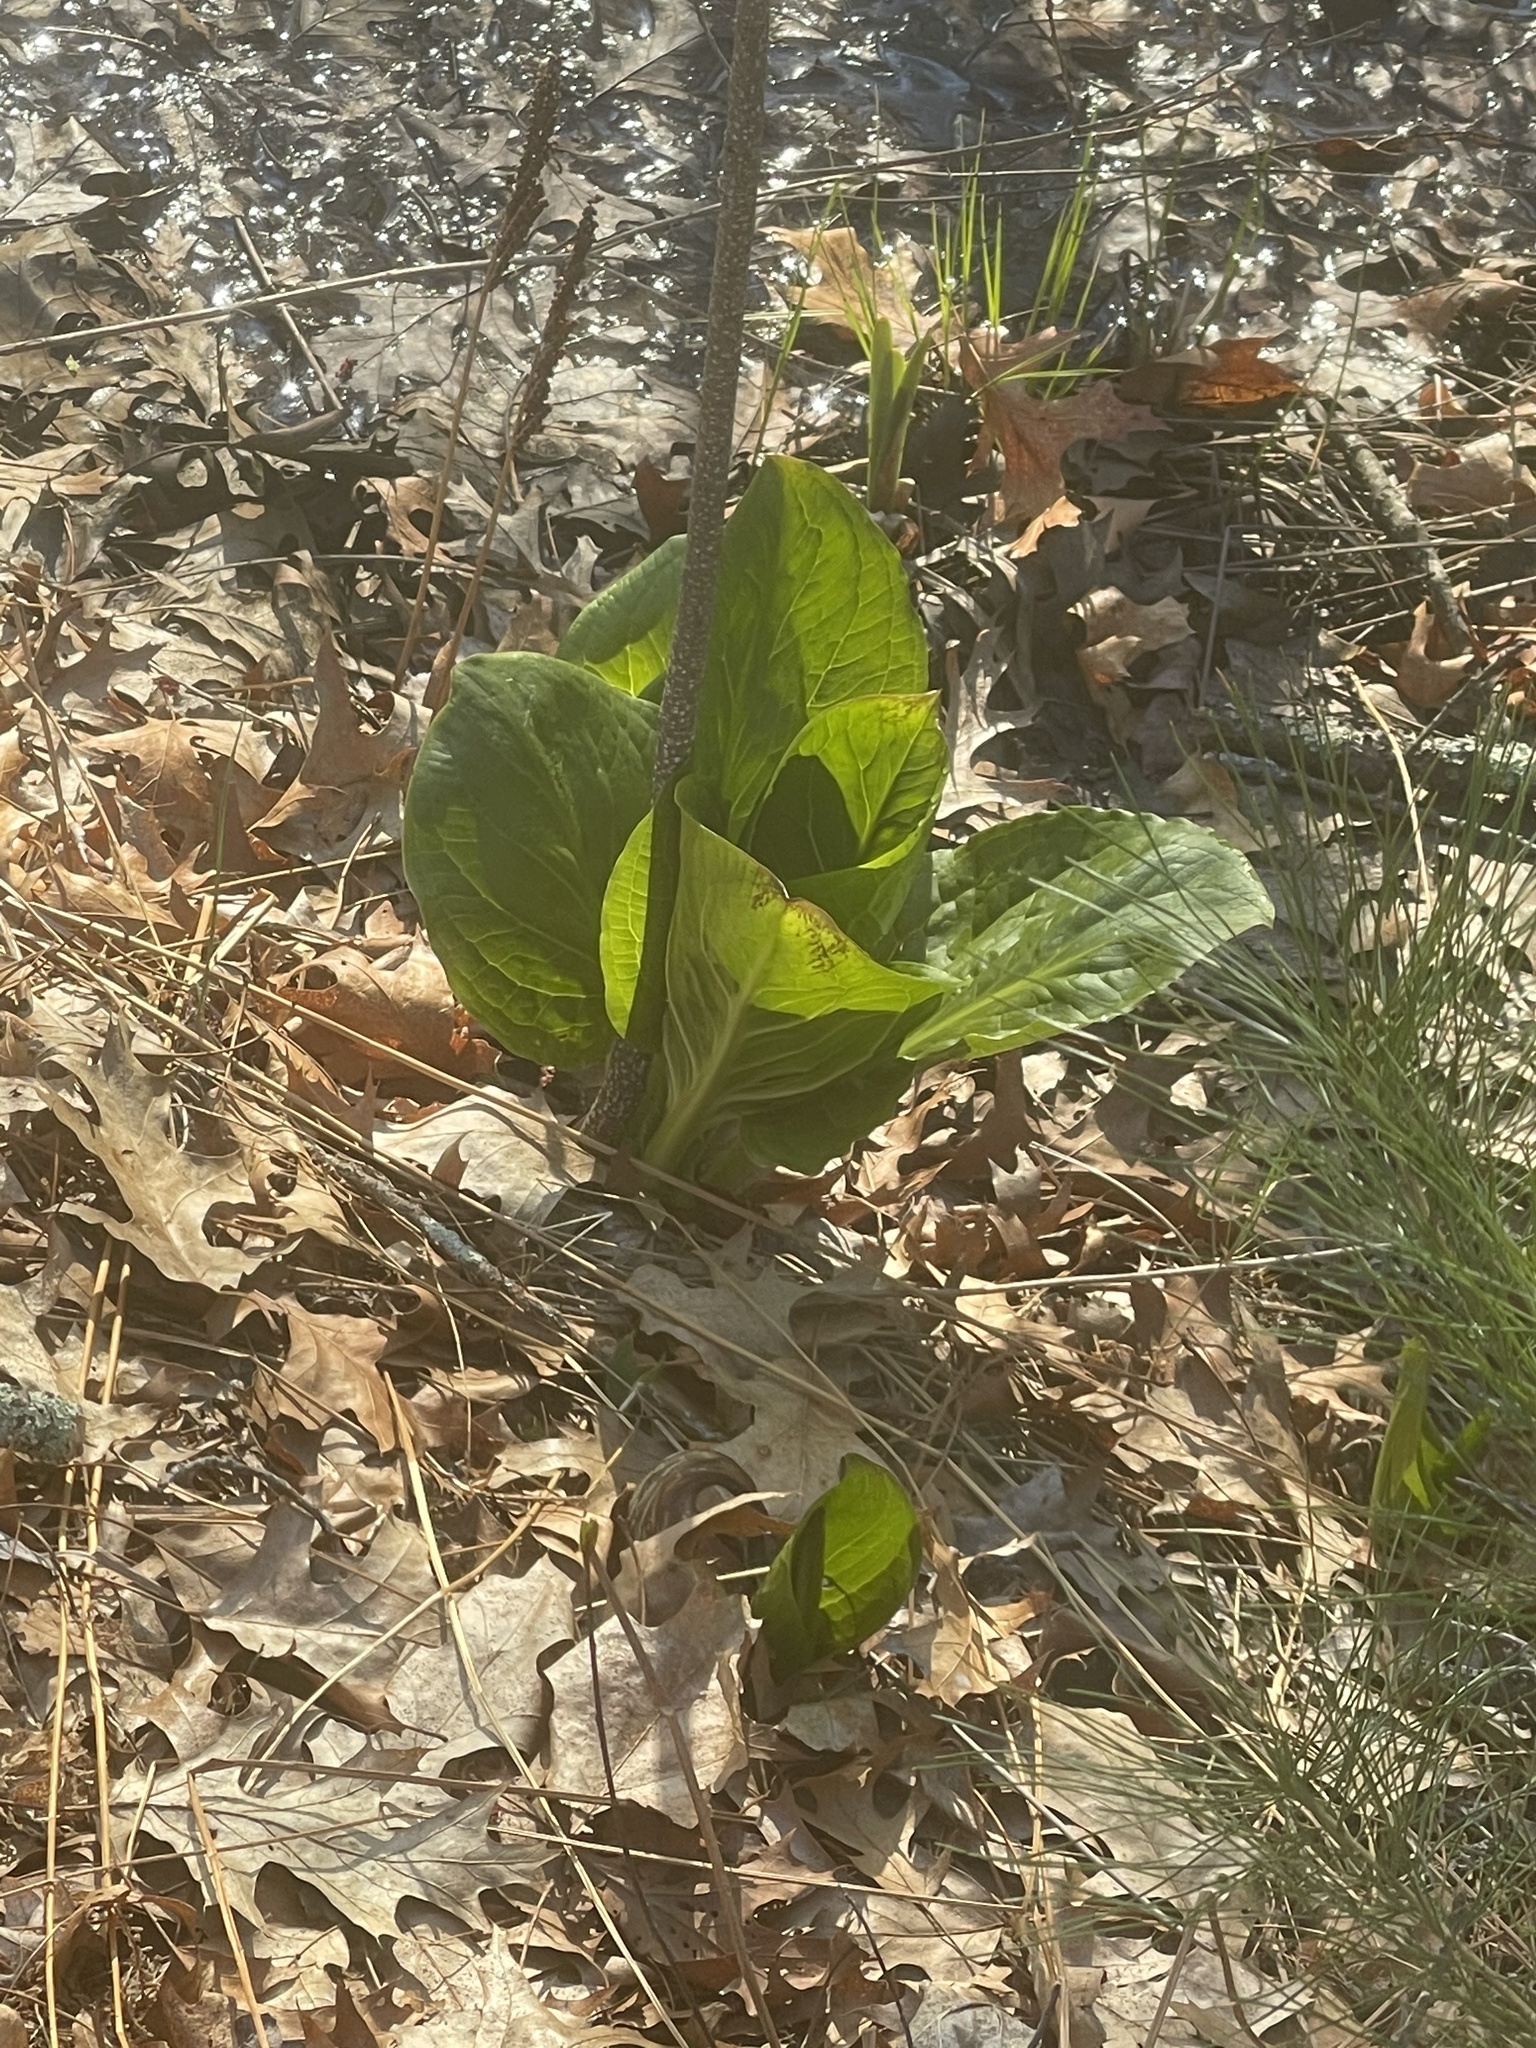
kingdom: Plantae
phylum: Tracheophyta
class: Liliopsida
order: Alismatales
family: Araceae
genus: Symplocarpus
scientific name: Symplocarpus foetidus
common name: Eastern skunk cabbage
